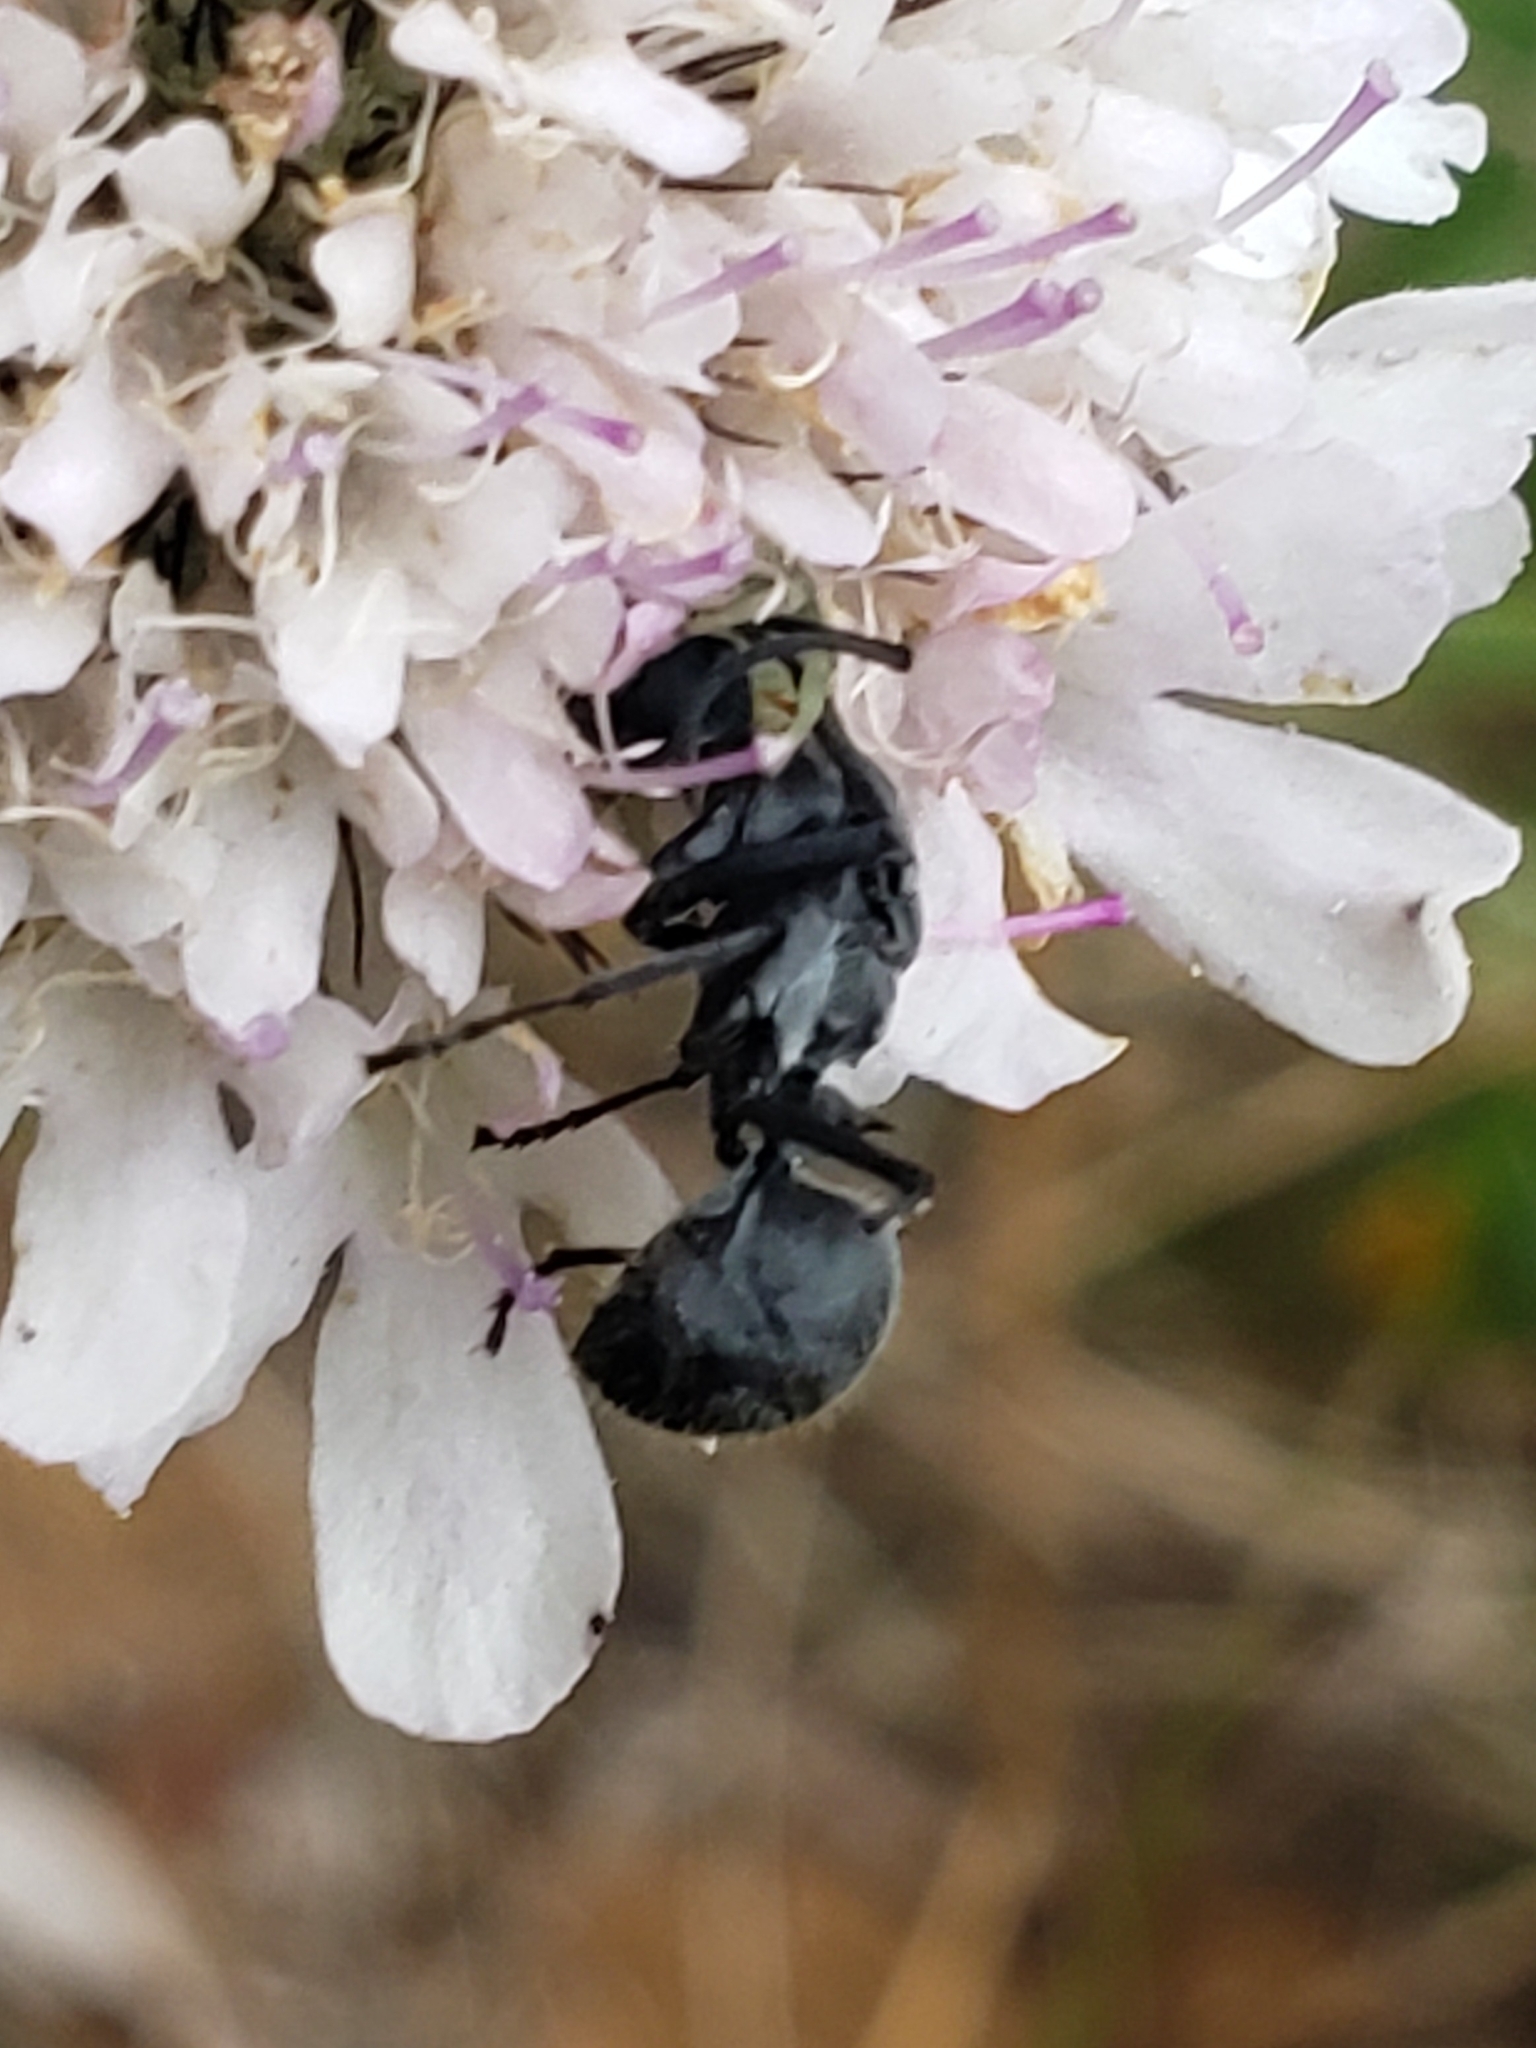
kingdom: Animalia
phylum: Arthropoda
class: Insecta
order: Hymenoptera
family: Formicidae
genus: Polyrhachis
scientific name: Polyrhachis schistacea
